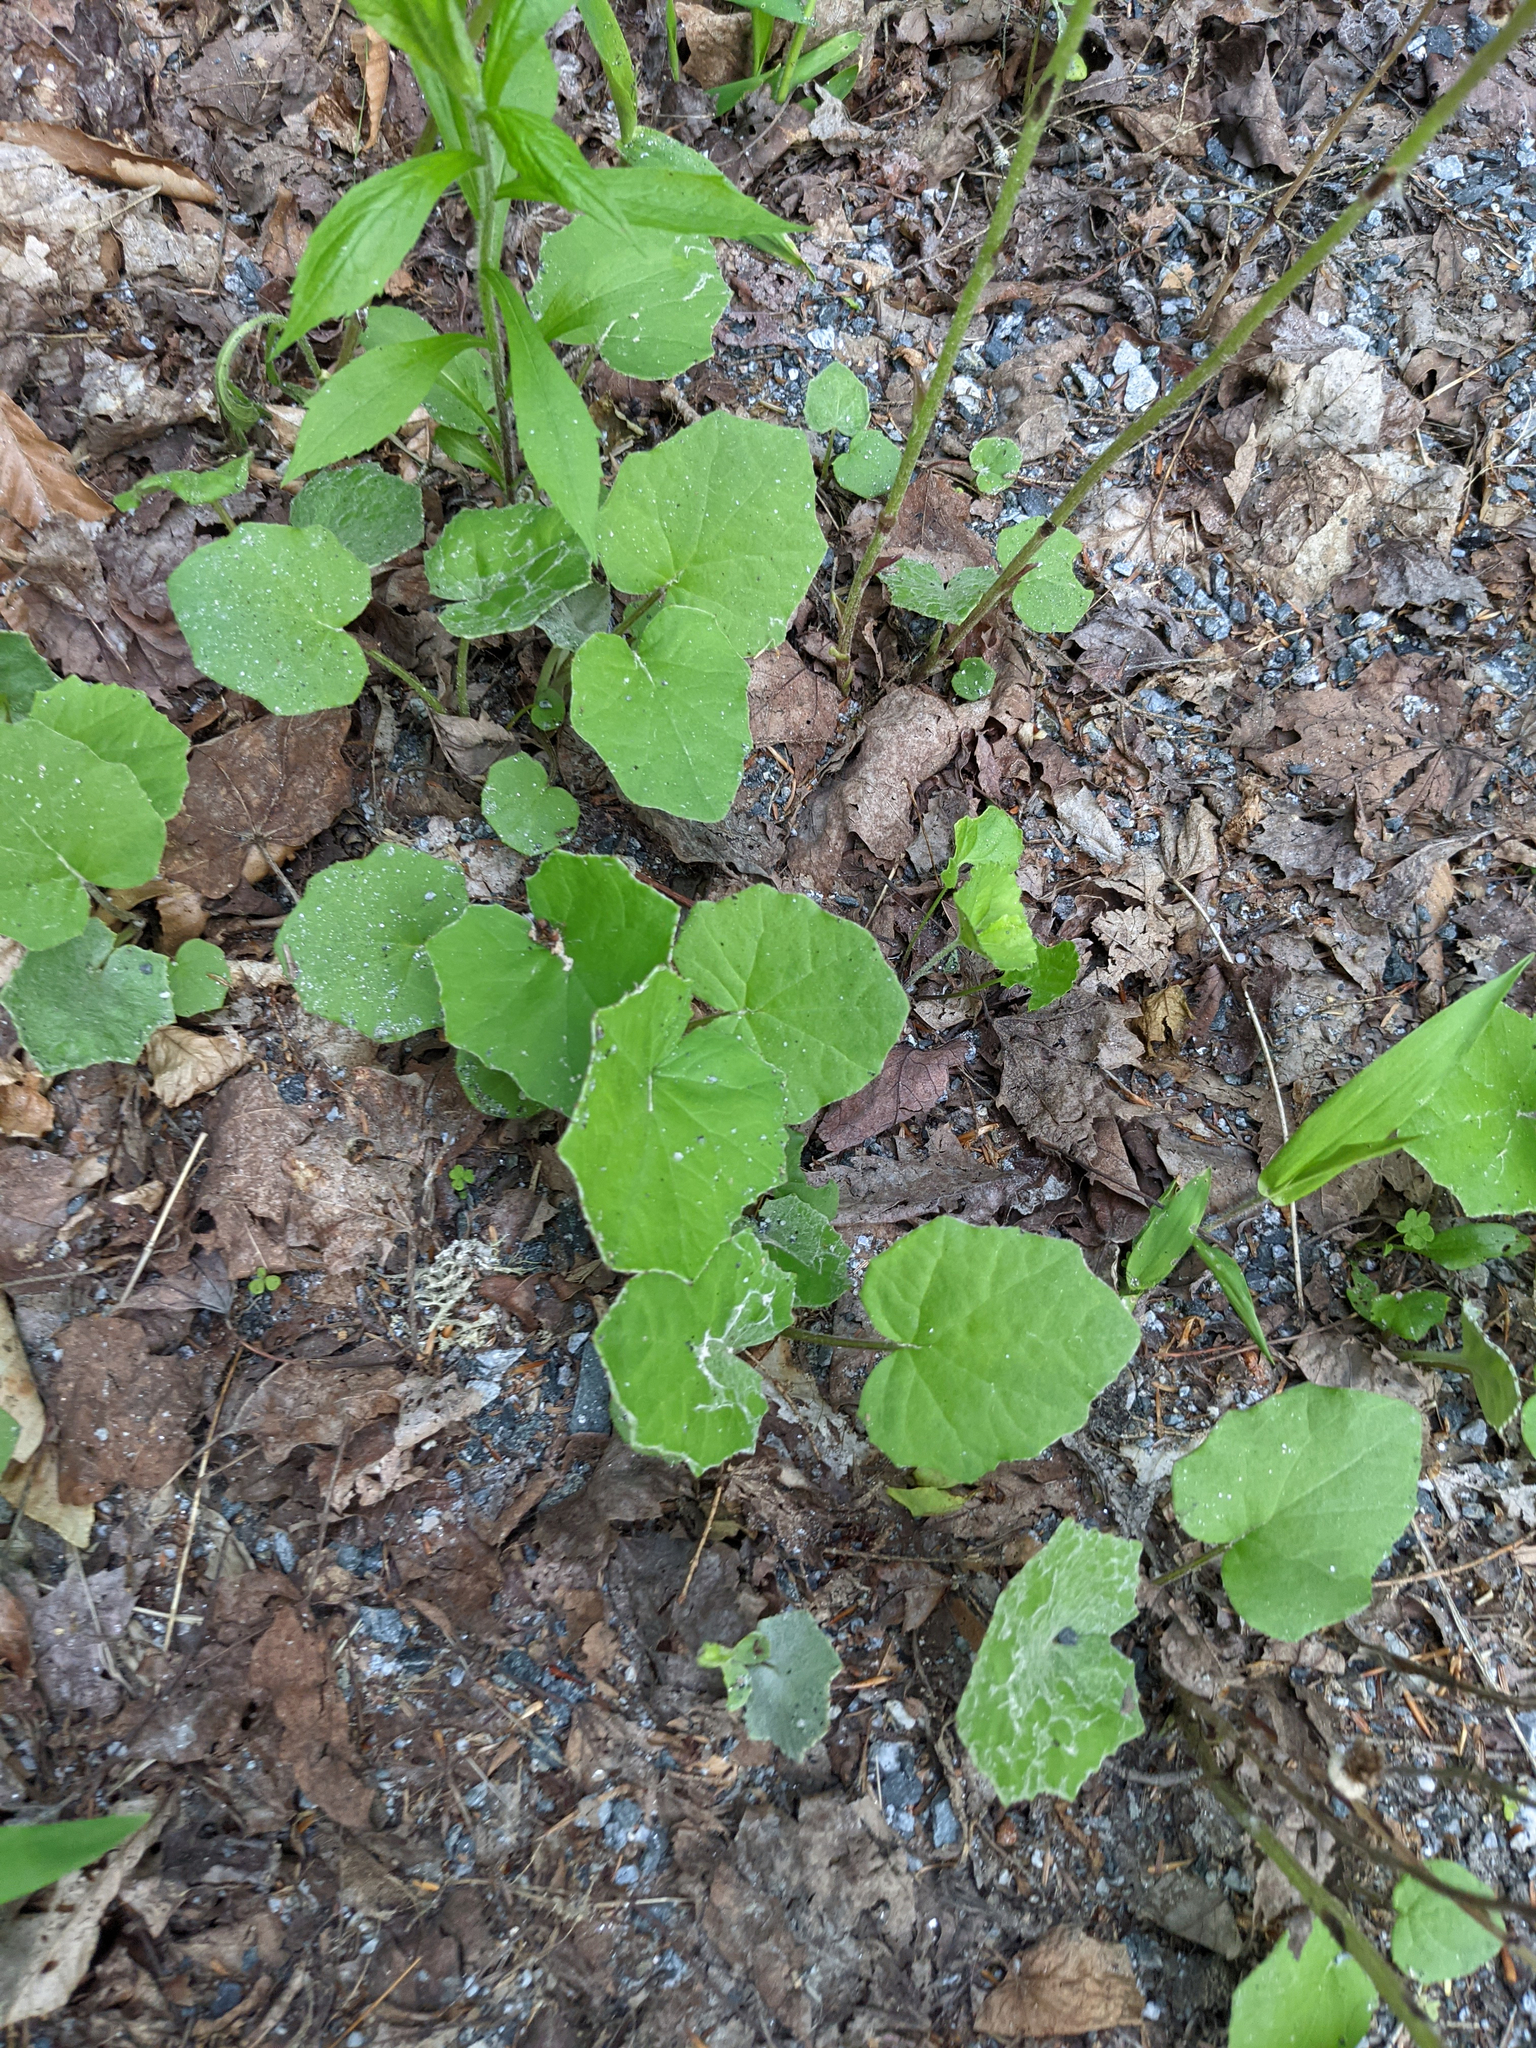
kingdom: Plantae
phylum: Tracheophyta
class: Magnoliopsida
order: Asterales
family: Asteraceae
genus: Tussilago
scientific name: Tussilago farfara
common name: Coltsfoot
